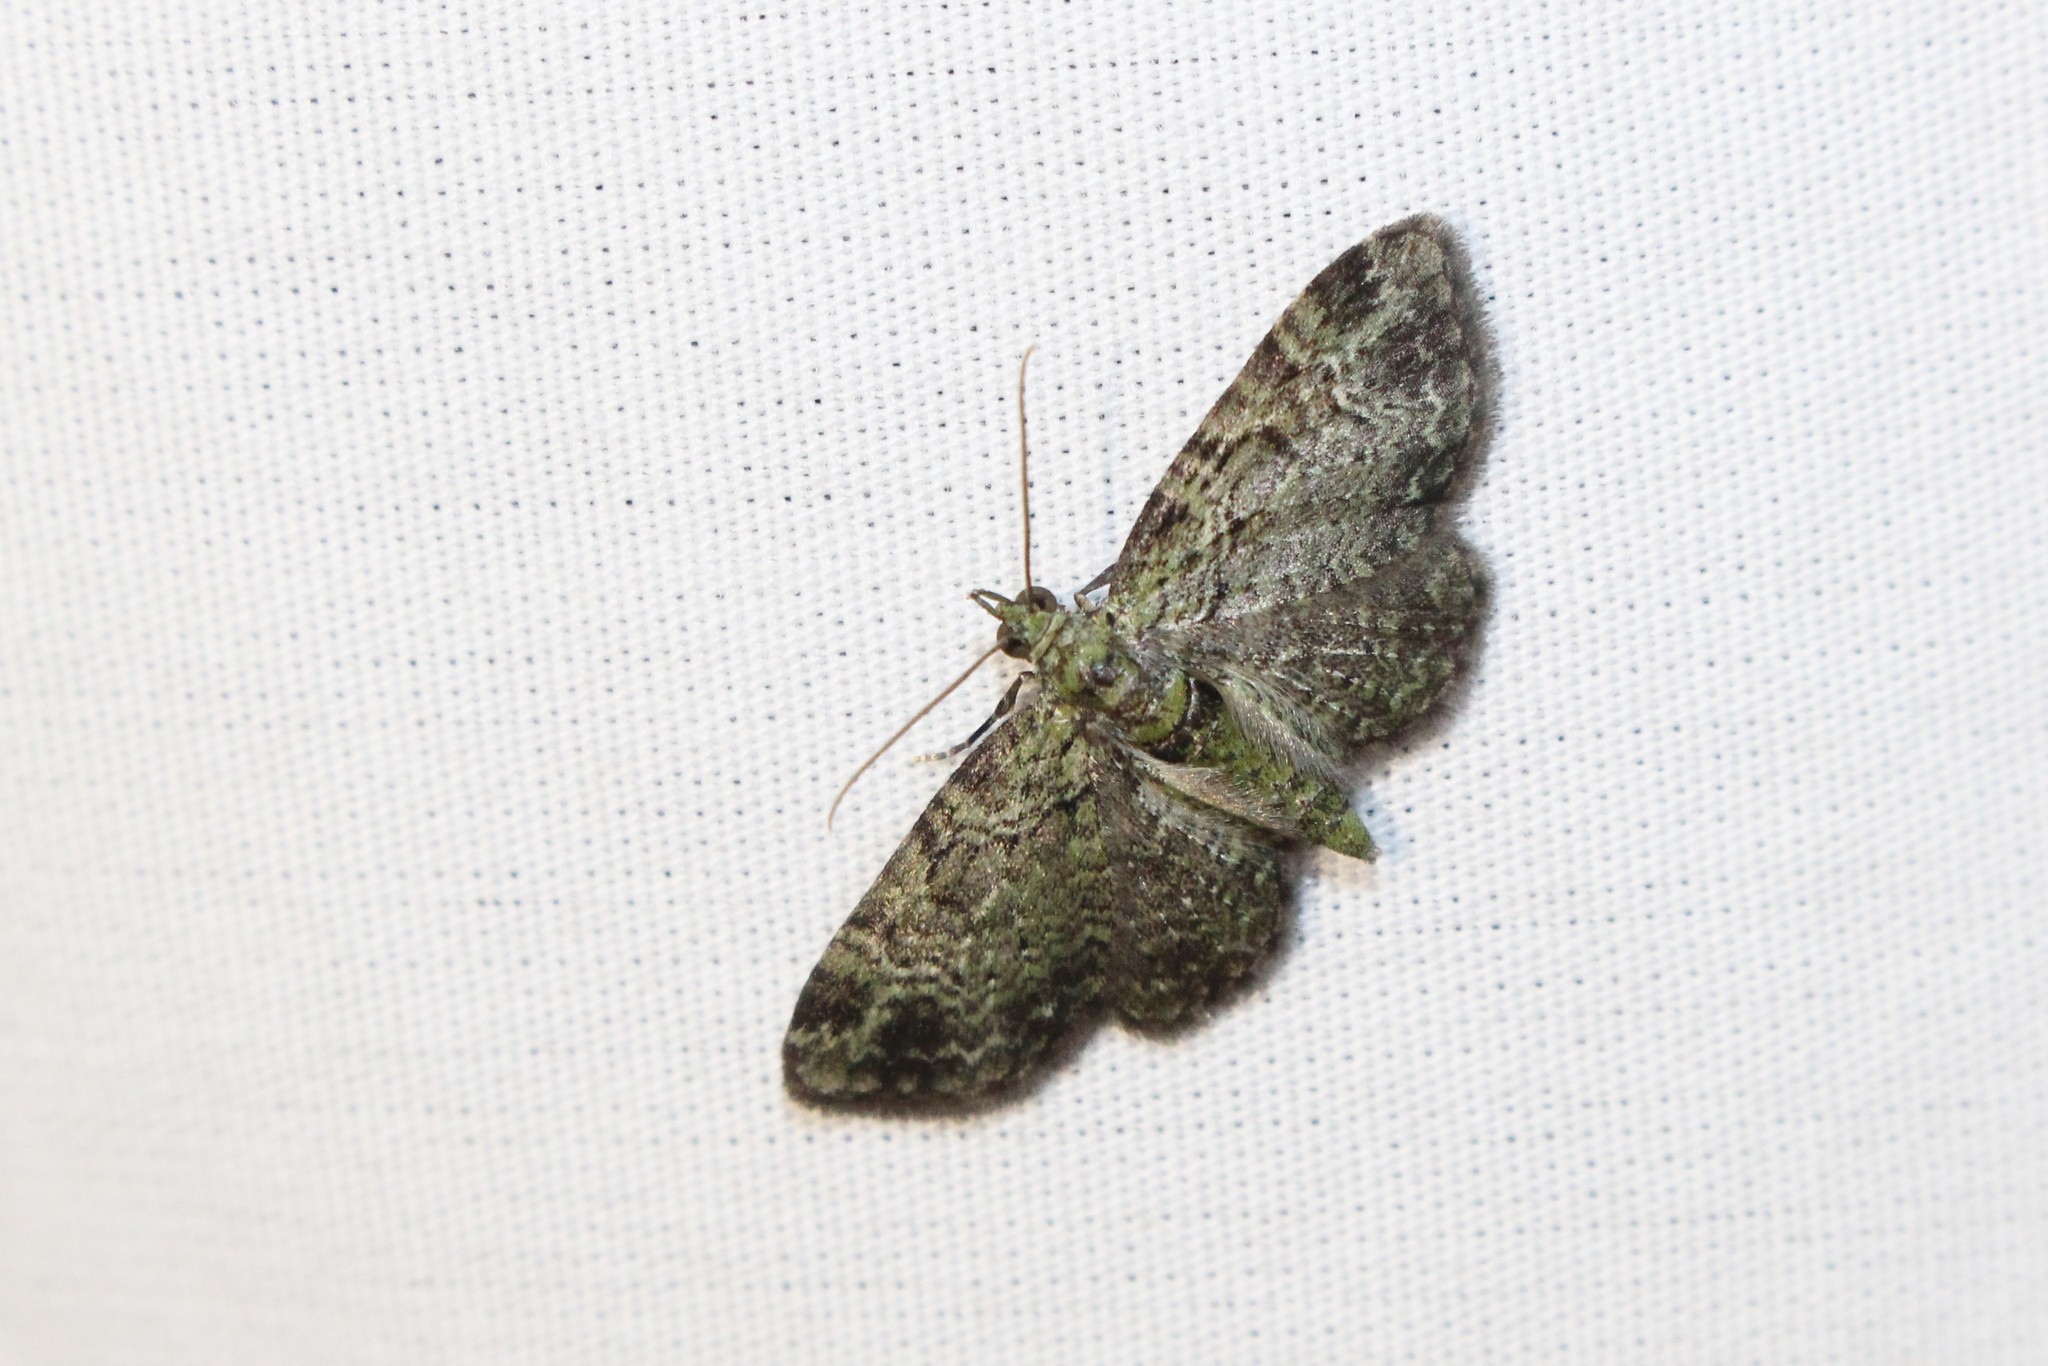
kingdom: Animalia
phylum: Arthropoda
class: Insecta
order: Lepidoptera
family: Geometridae
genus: Pasiphila
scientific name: Pasiphila rectangulata
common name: Green pug
